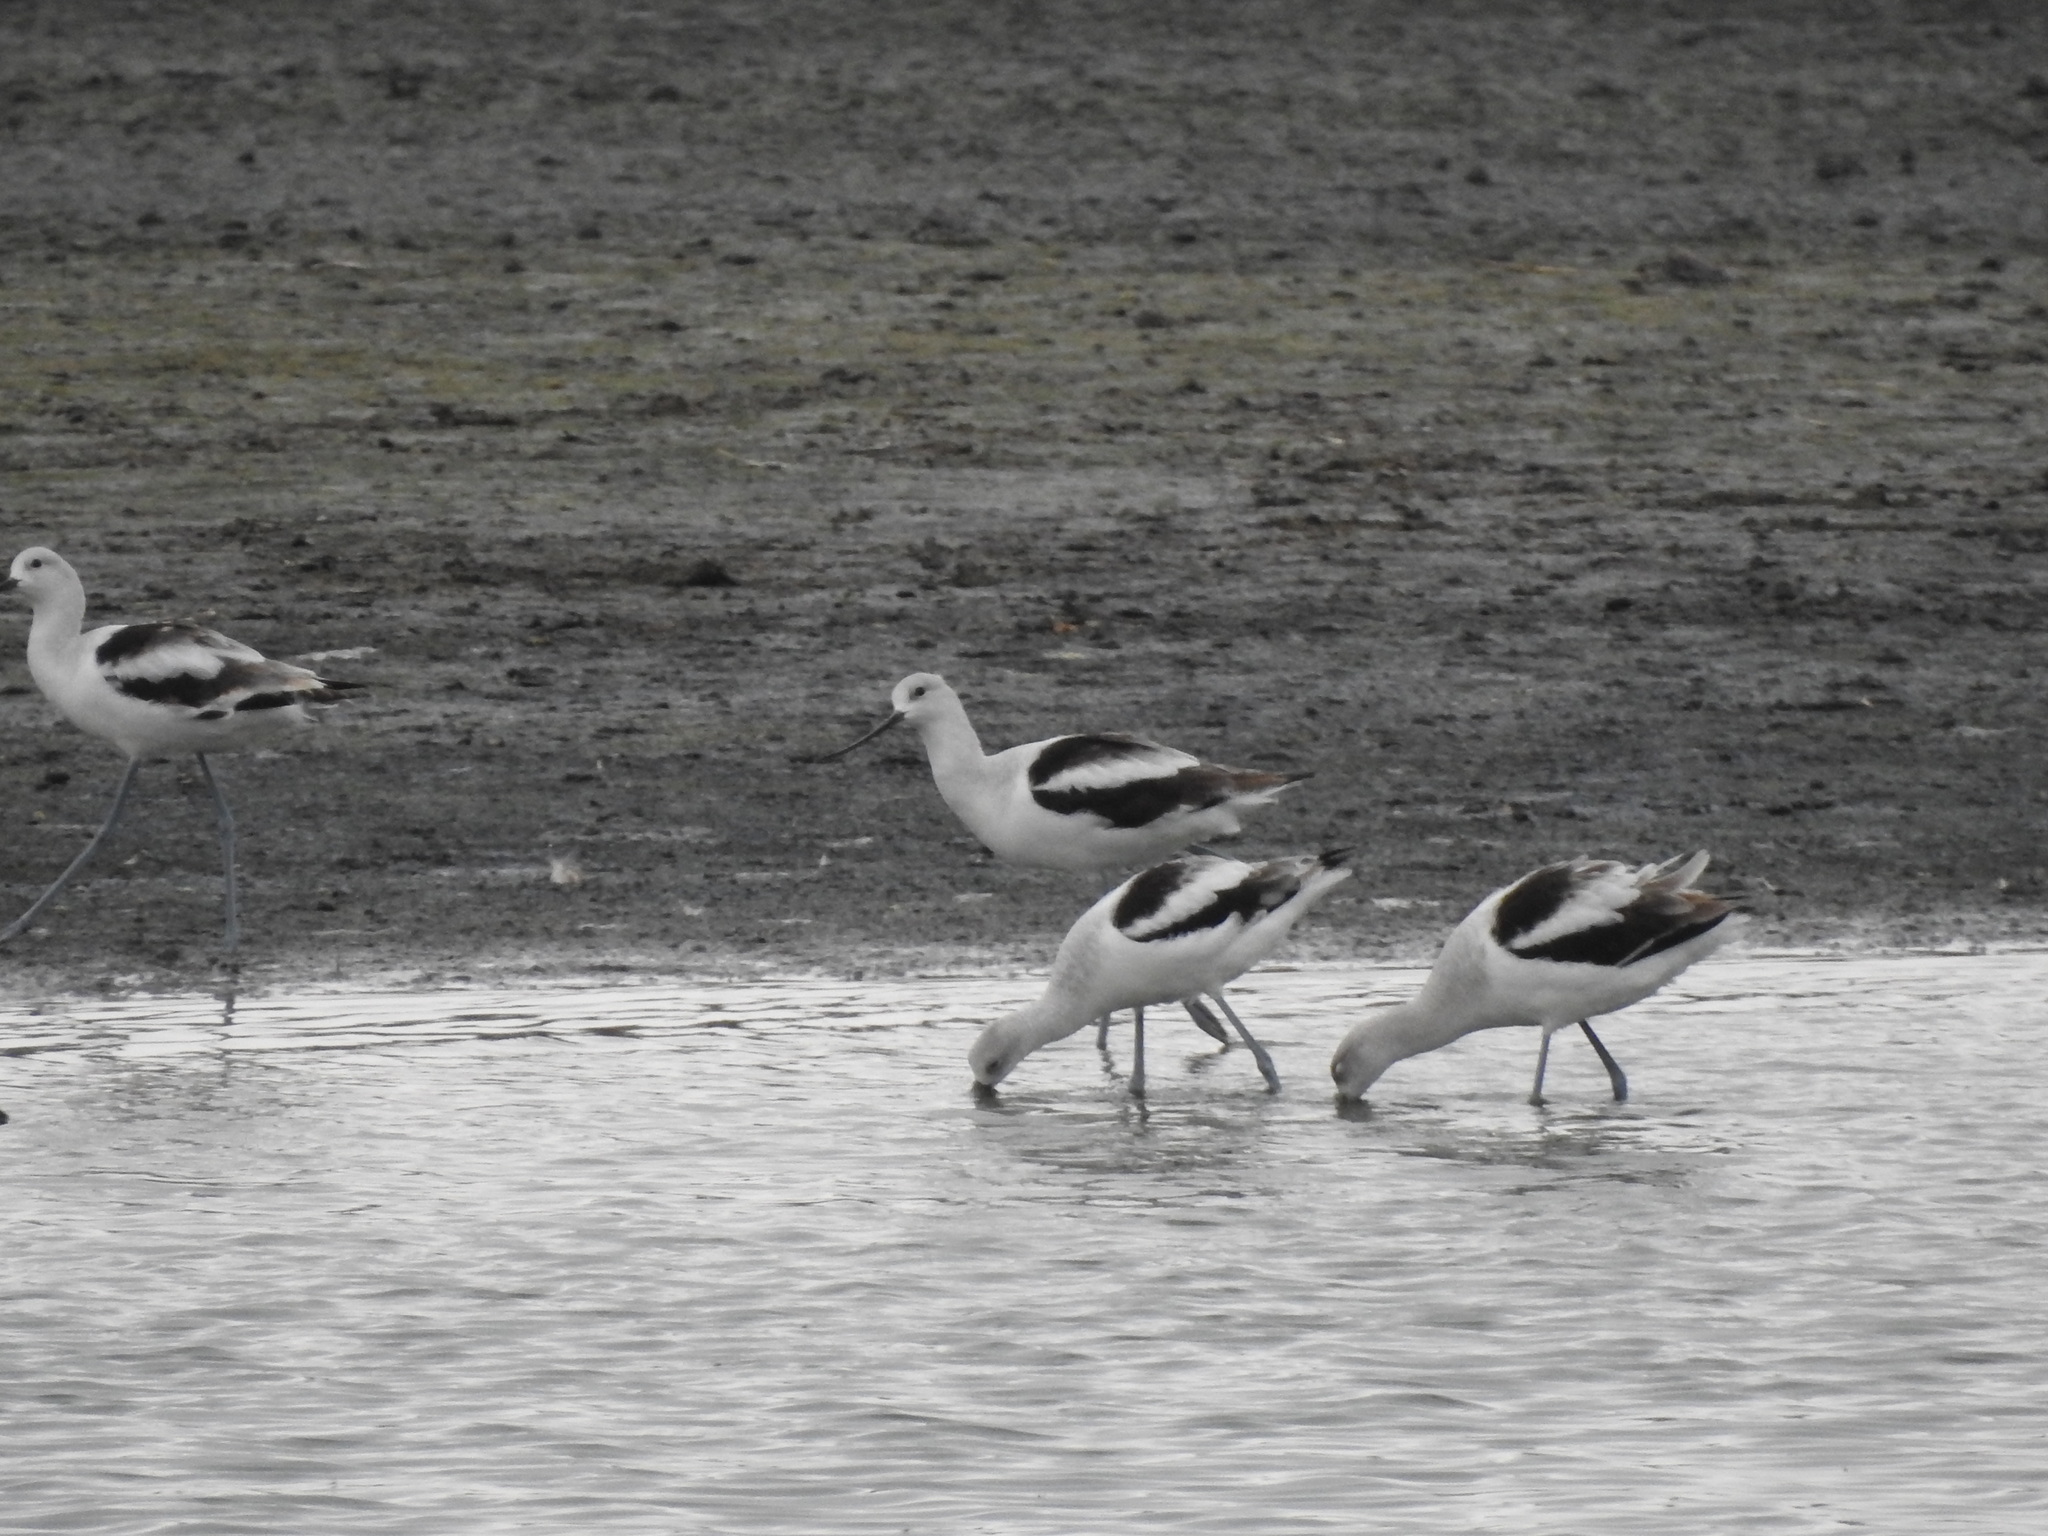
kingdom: Animalia
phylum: Chordata
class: Aves
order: Charadriiformes
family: Recurvirostridae
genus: Recurvirostra
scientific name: Recurvirostra americana
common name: American avocet
